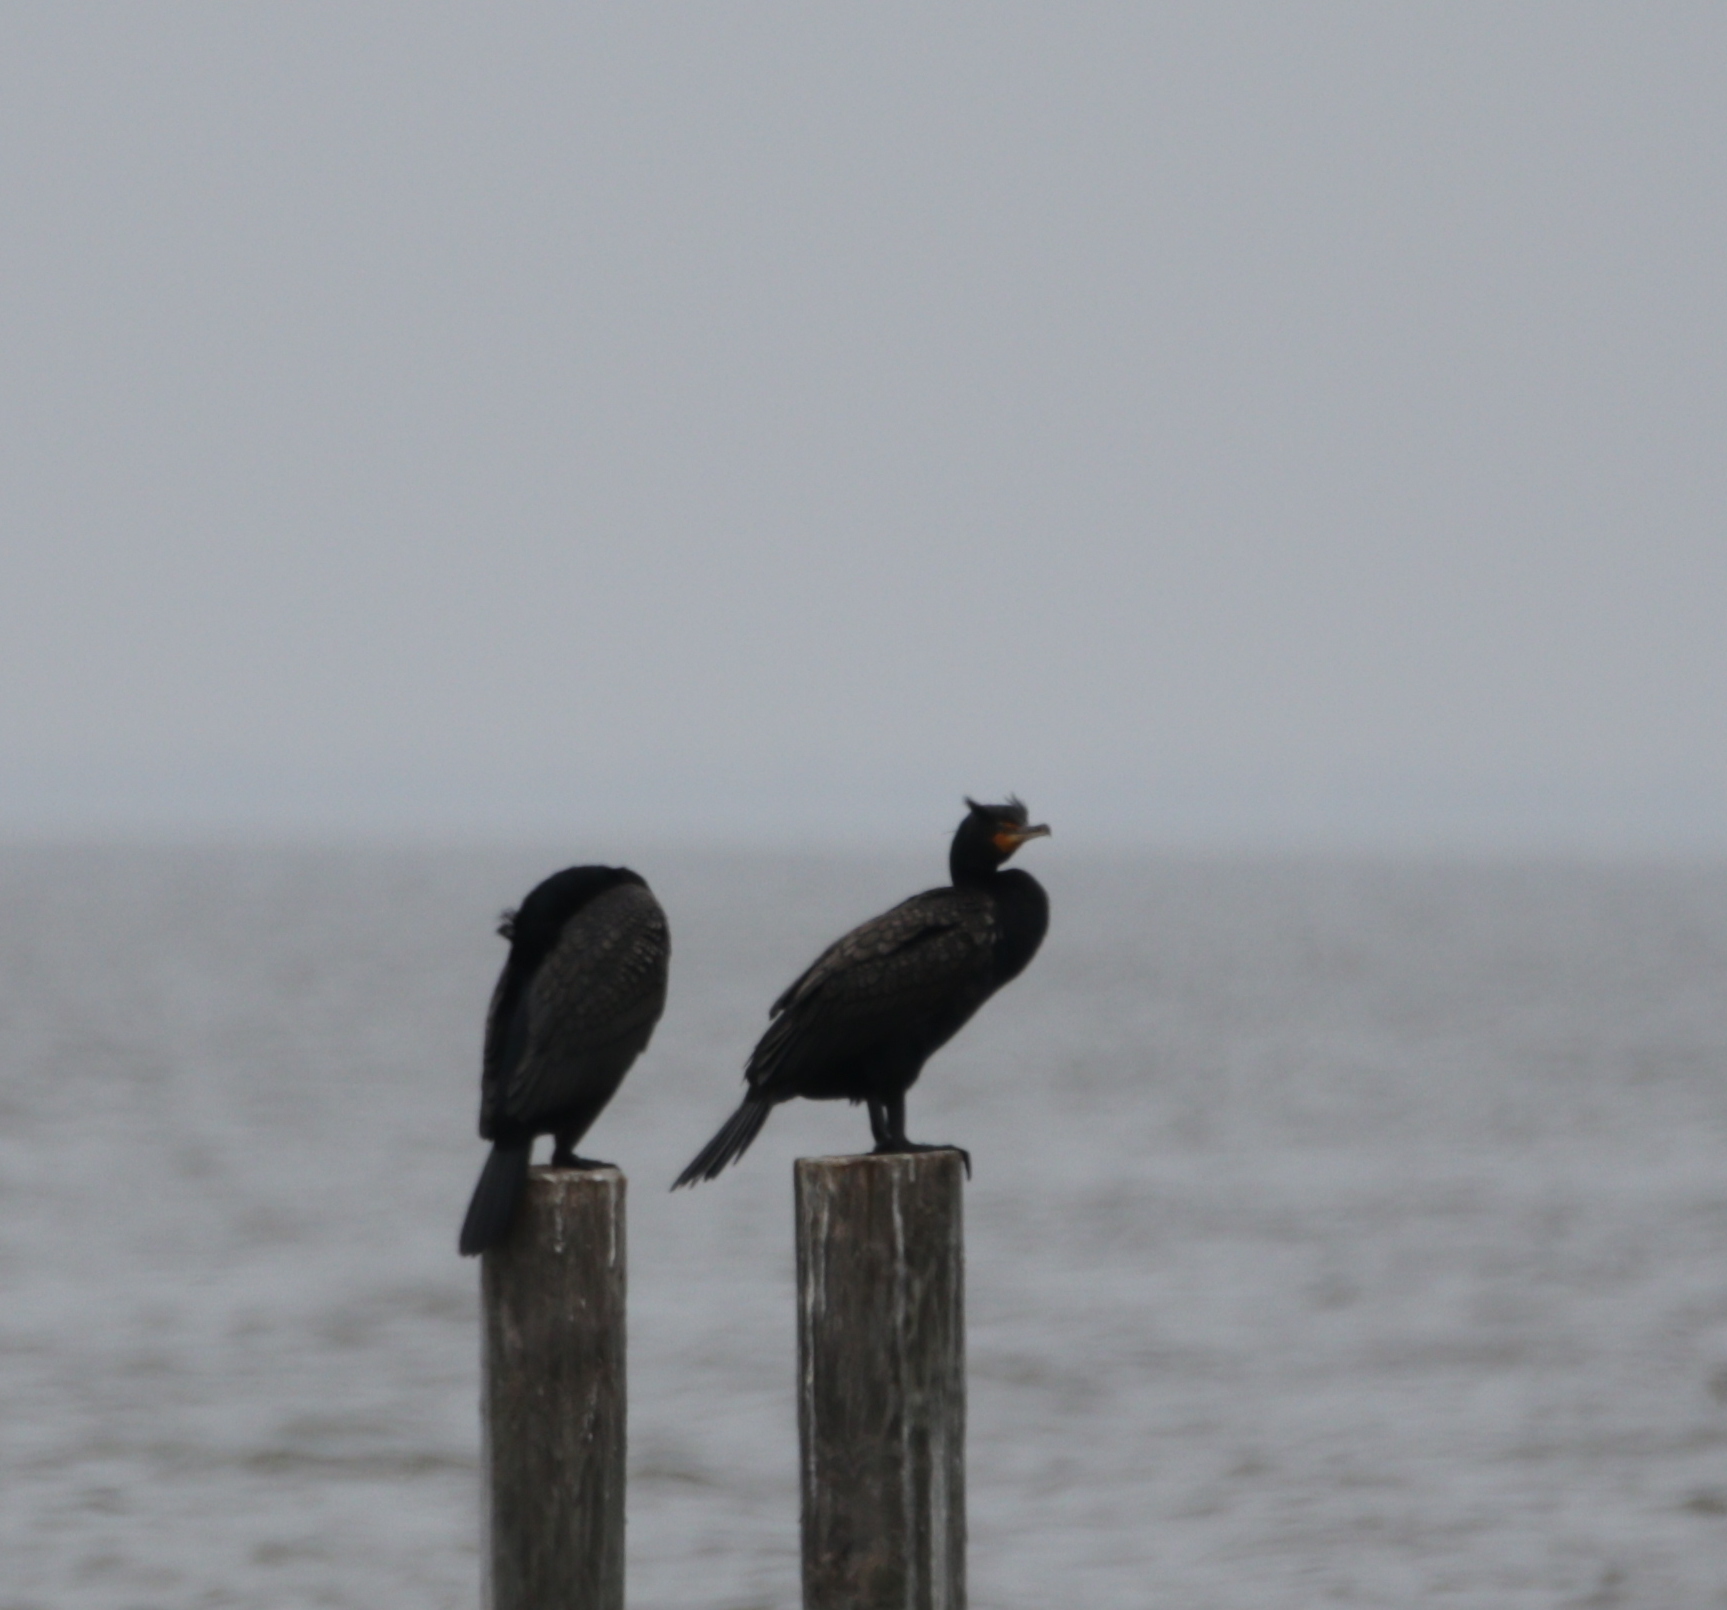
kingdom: Animalia
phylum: Chordata
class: Aves
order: Suliformes
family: Phalacrocoracidae
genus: Phalacrocorax
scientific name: Phalacrocorax auritus
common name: Double-crested cormorant
